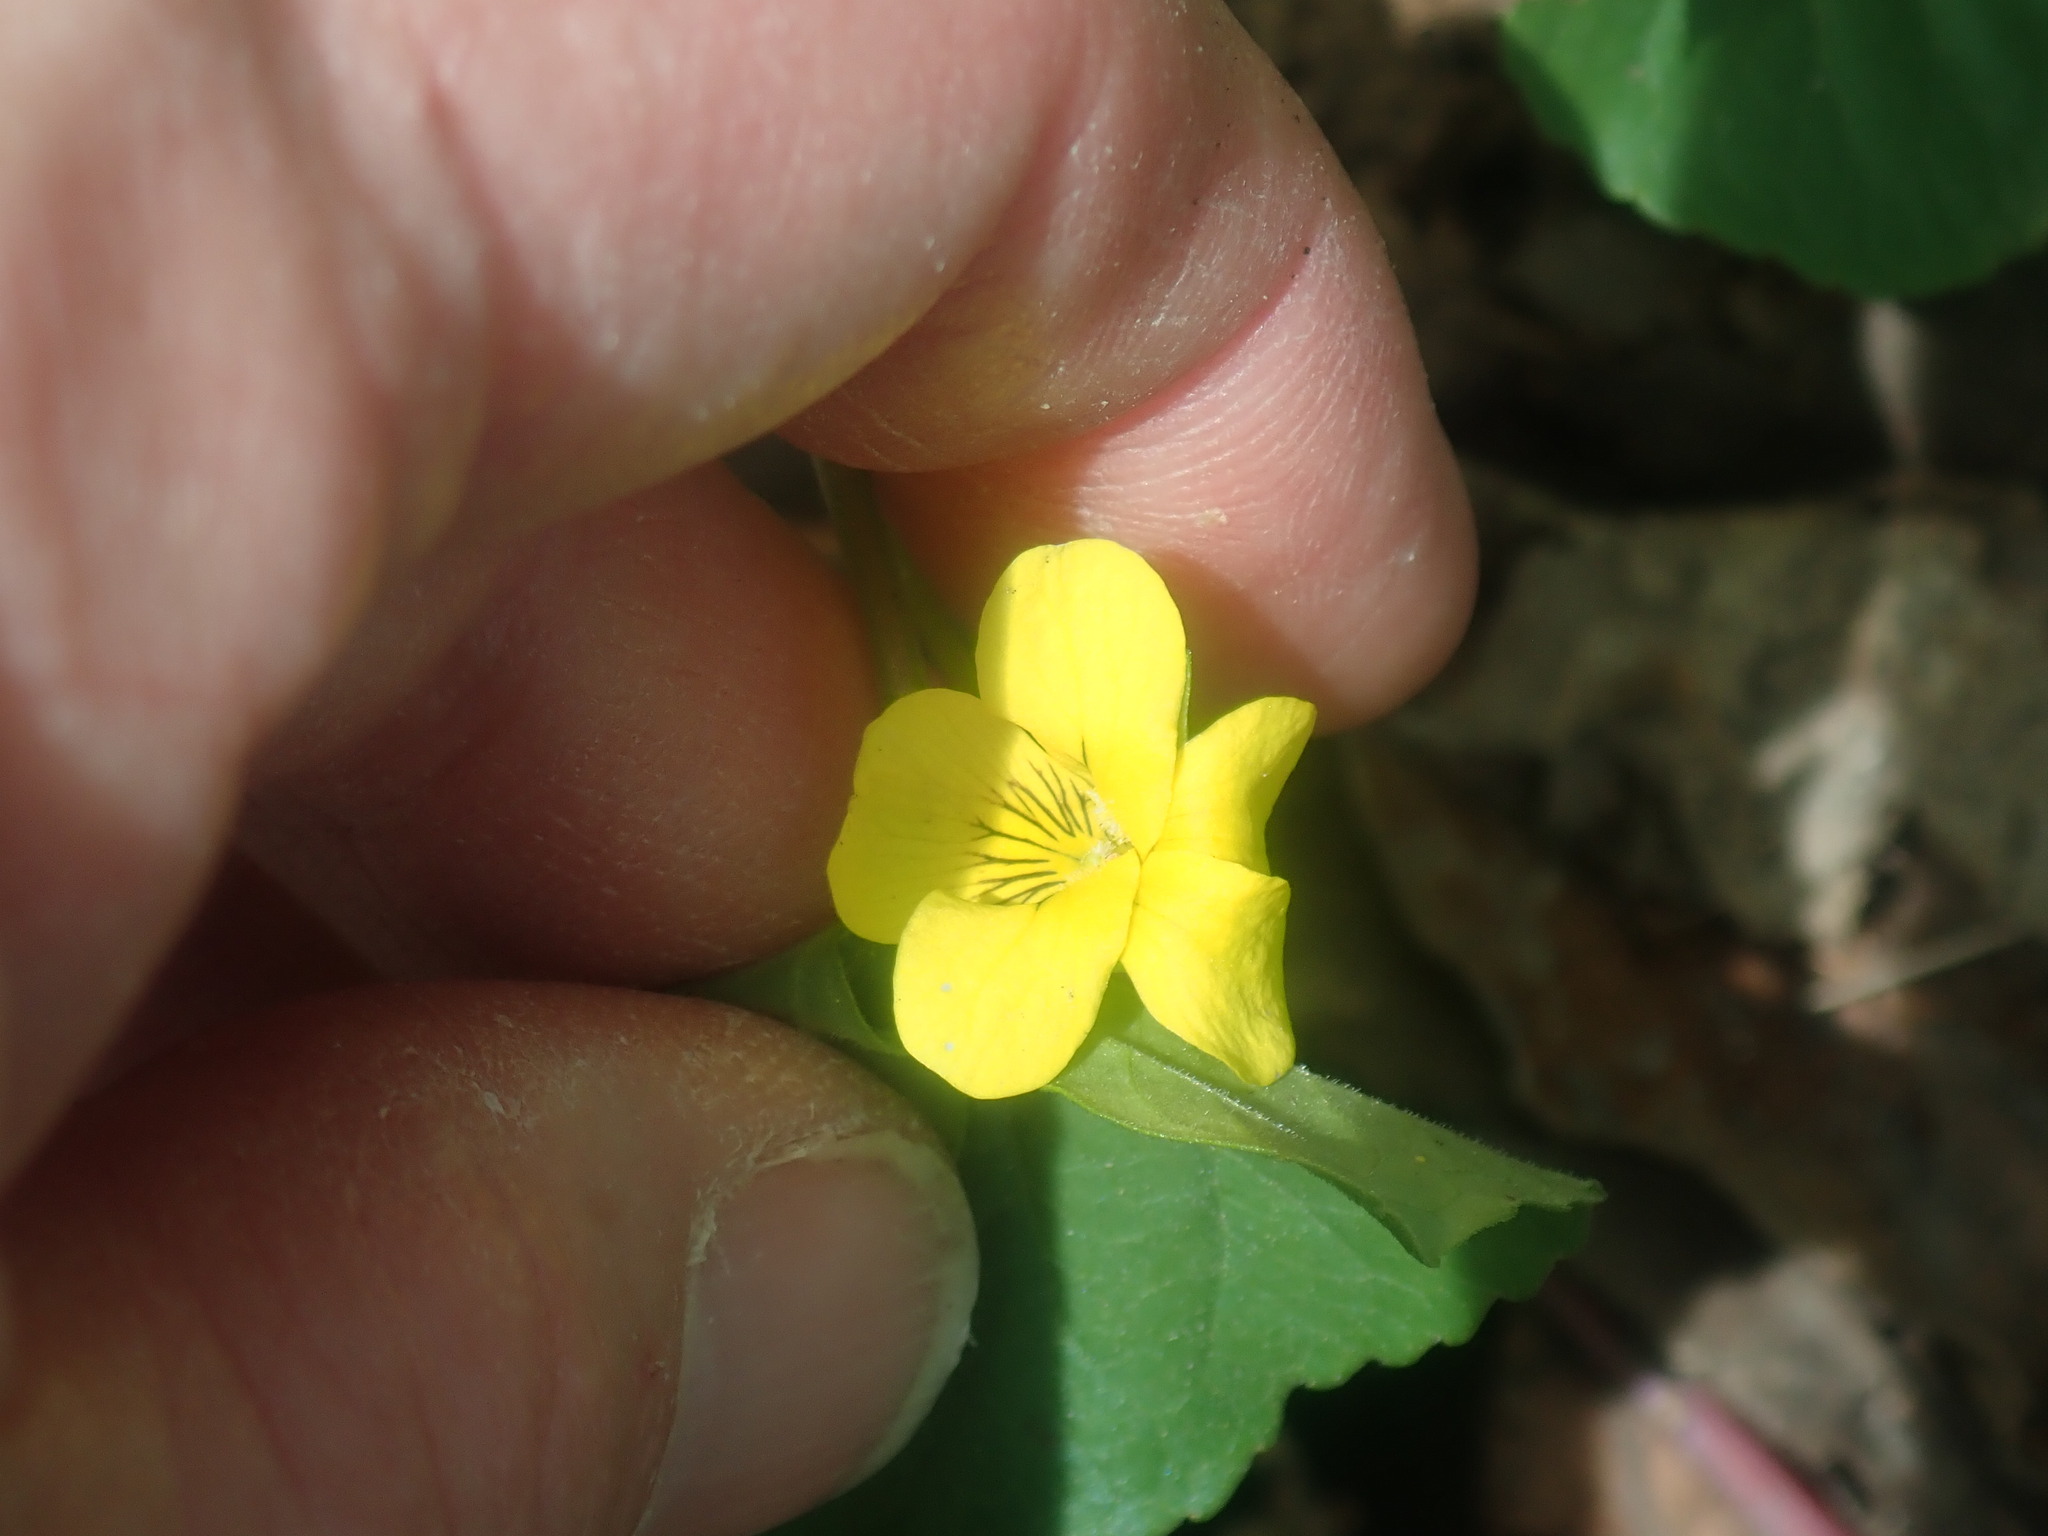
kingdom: Plantae
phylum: Tracheophyta
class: Magnoliopsida
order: Malpighiales
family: Violaceae
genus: Viola
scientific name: Viola eriocarpa
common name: Smooth yellow violet
